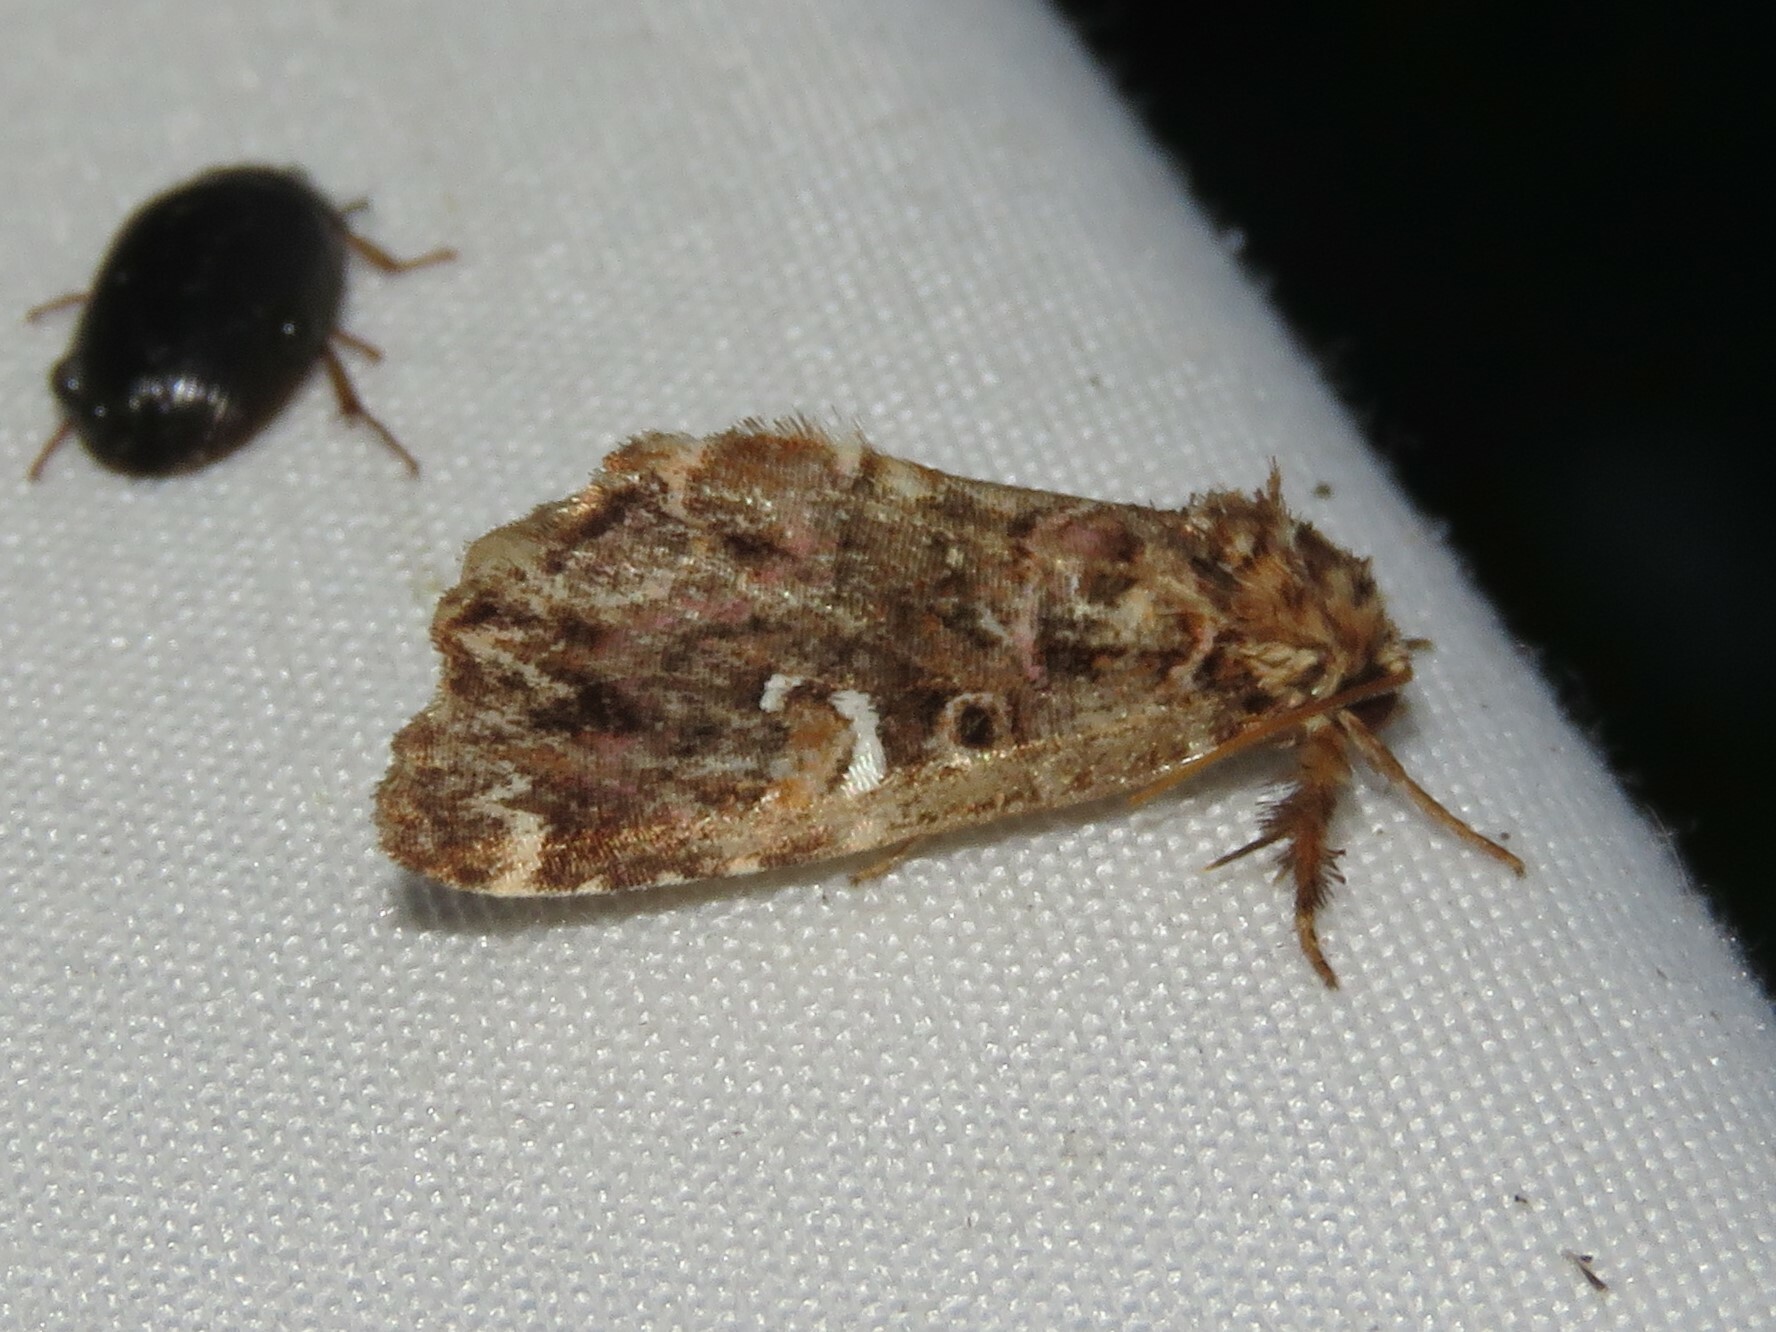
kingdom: Animalia
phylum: Arthropoda
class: Insecta
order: Lepidoptera
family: Noctuidae
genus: Callopistria
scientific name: Callopistria mollissima
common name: Pink-shaded fern moth
